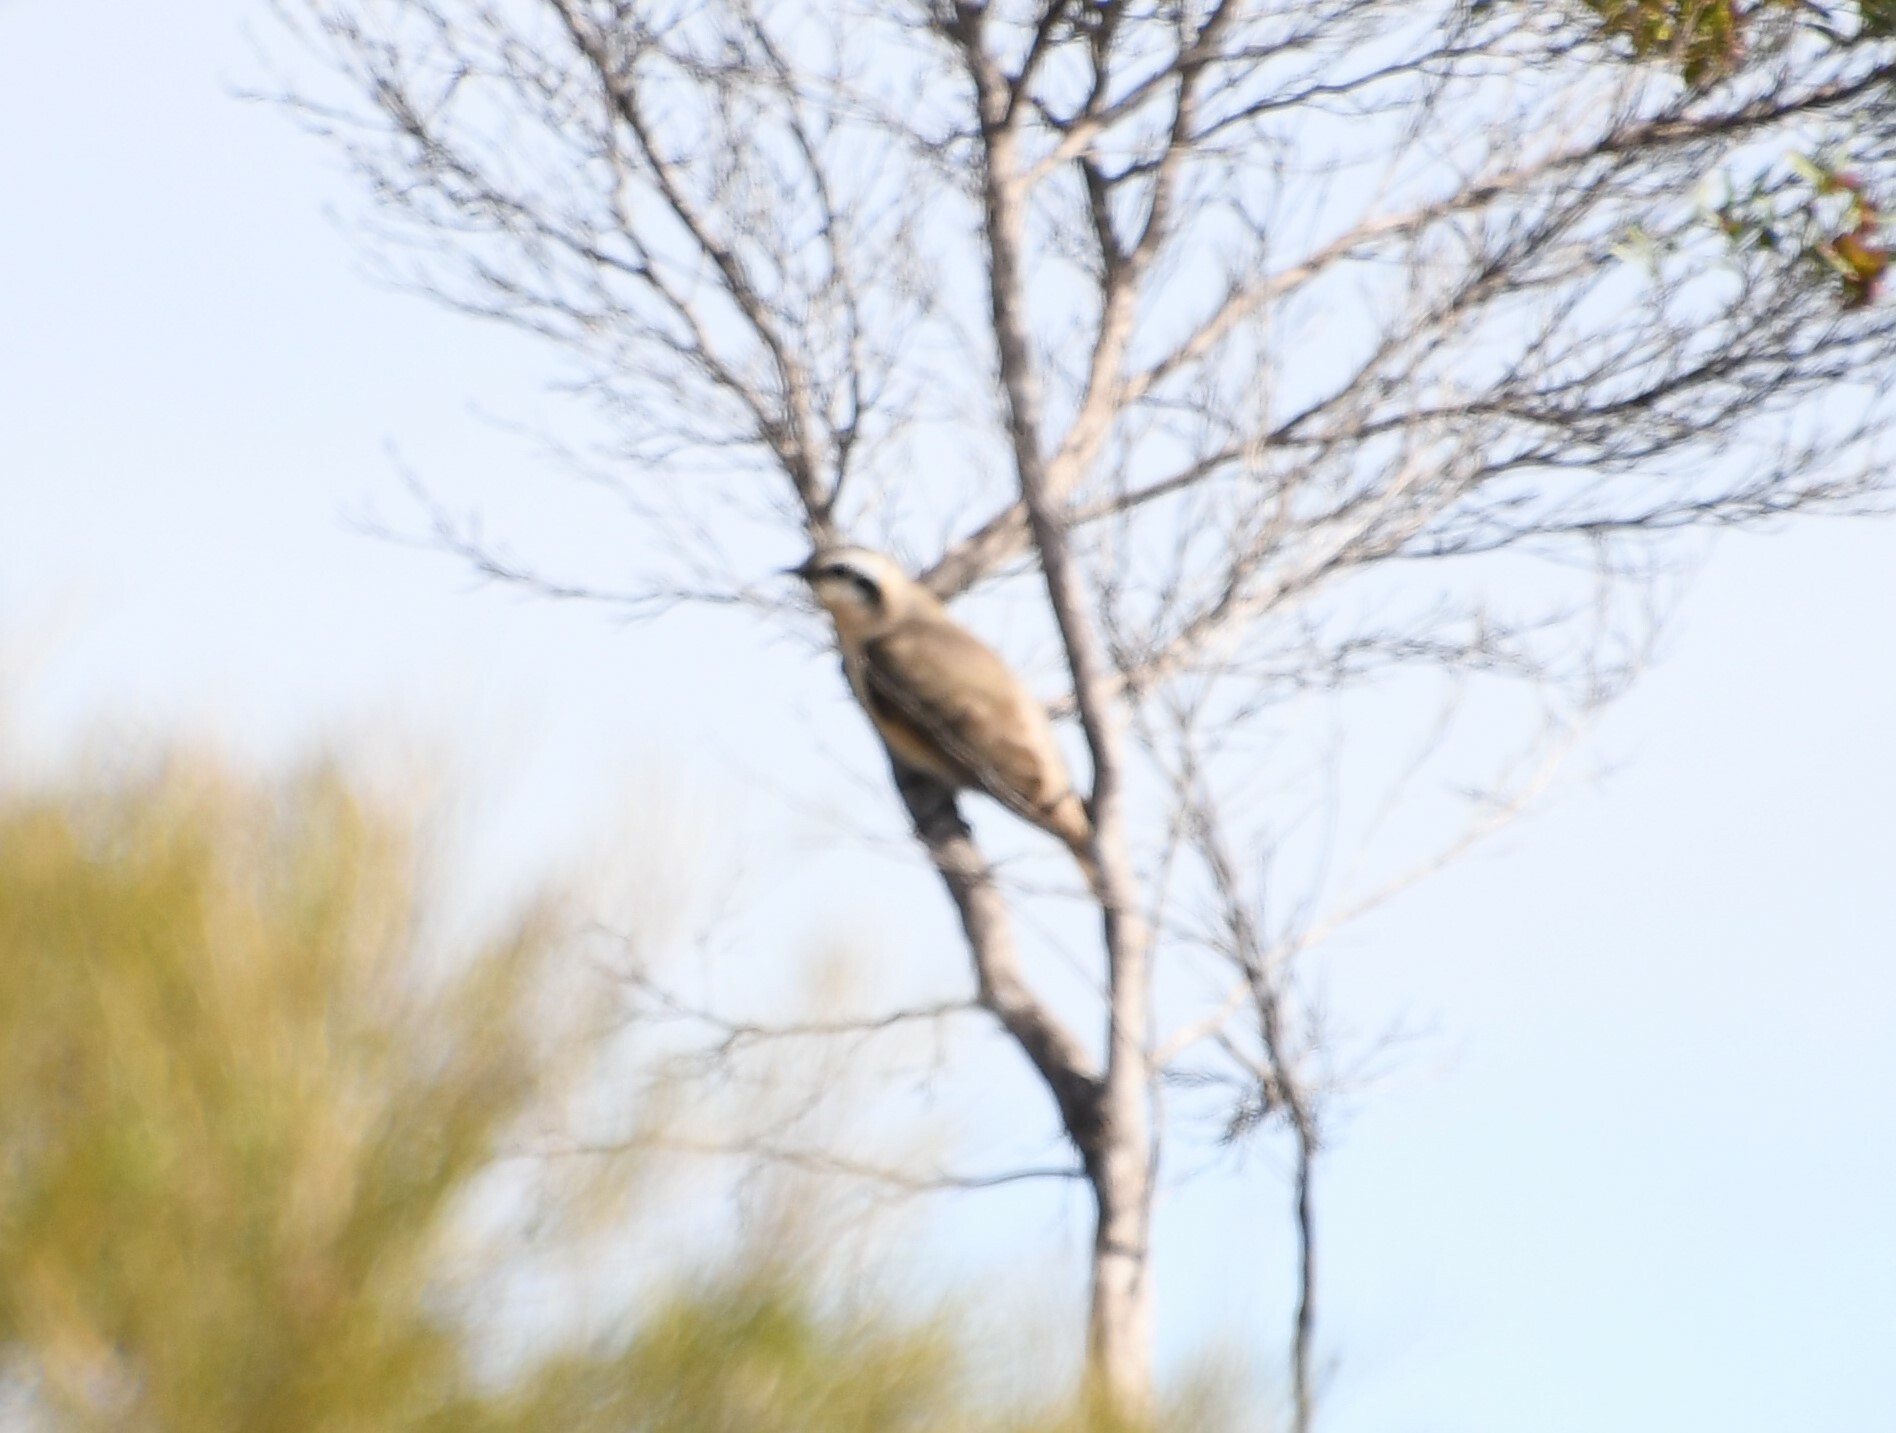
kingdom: Animalia
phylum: Chordata
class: Aves
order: Cuculiformes
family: Cuculidae
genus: Chrysococcyx
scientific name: Chrysococcyx osculans
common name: Black-eared cuckoo
